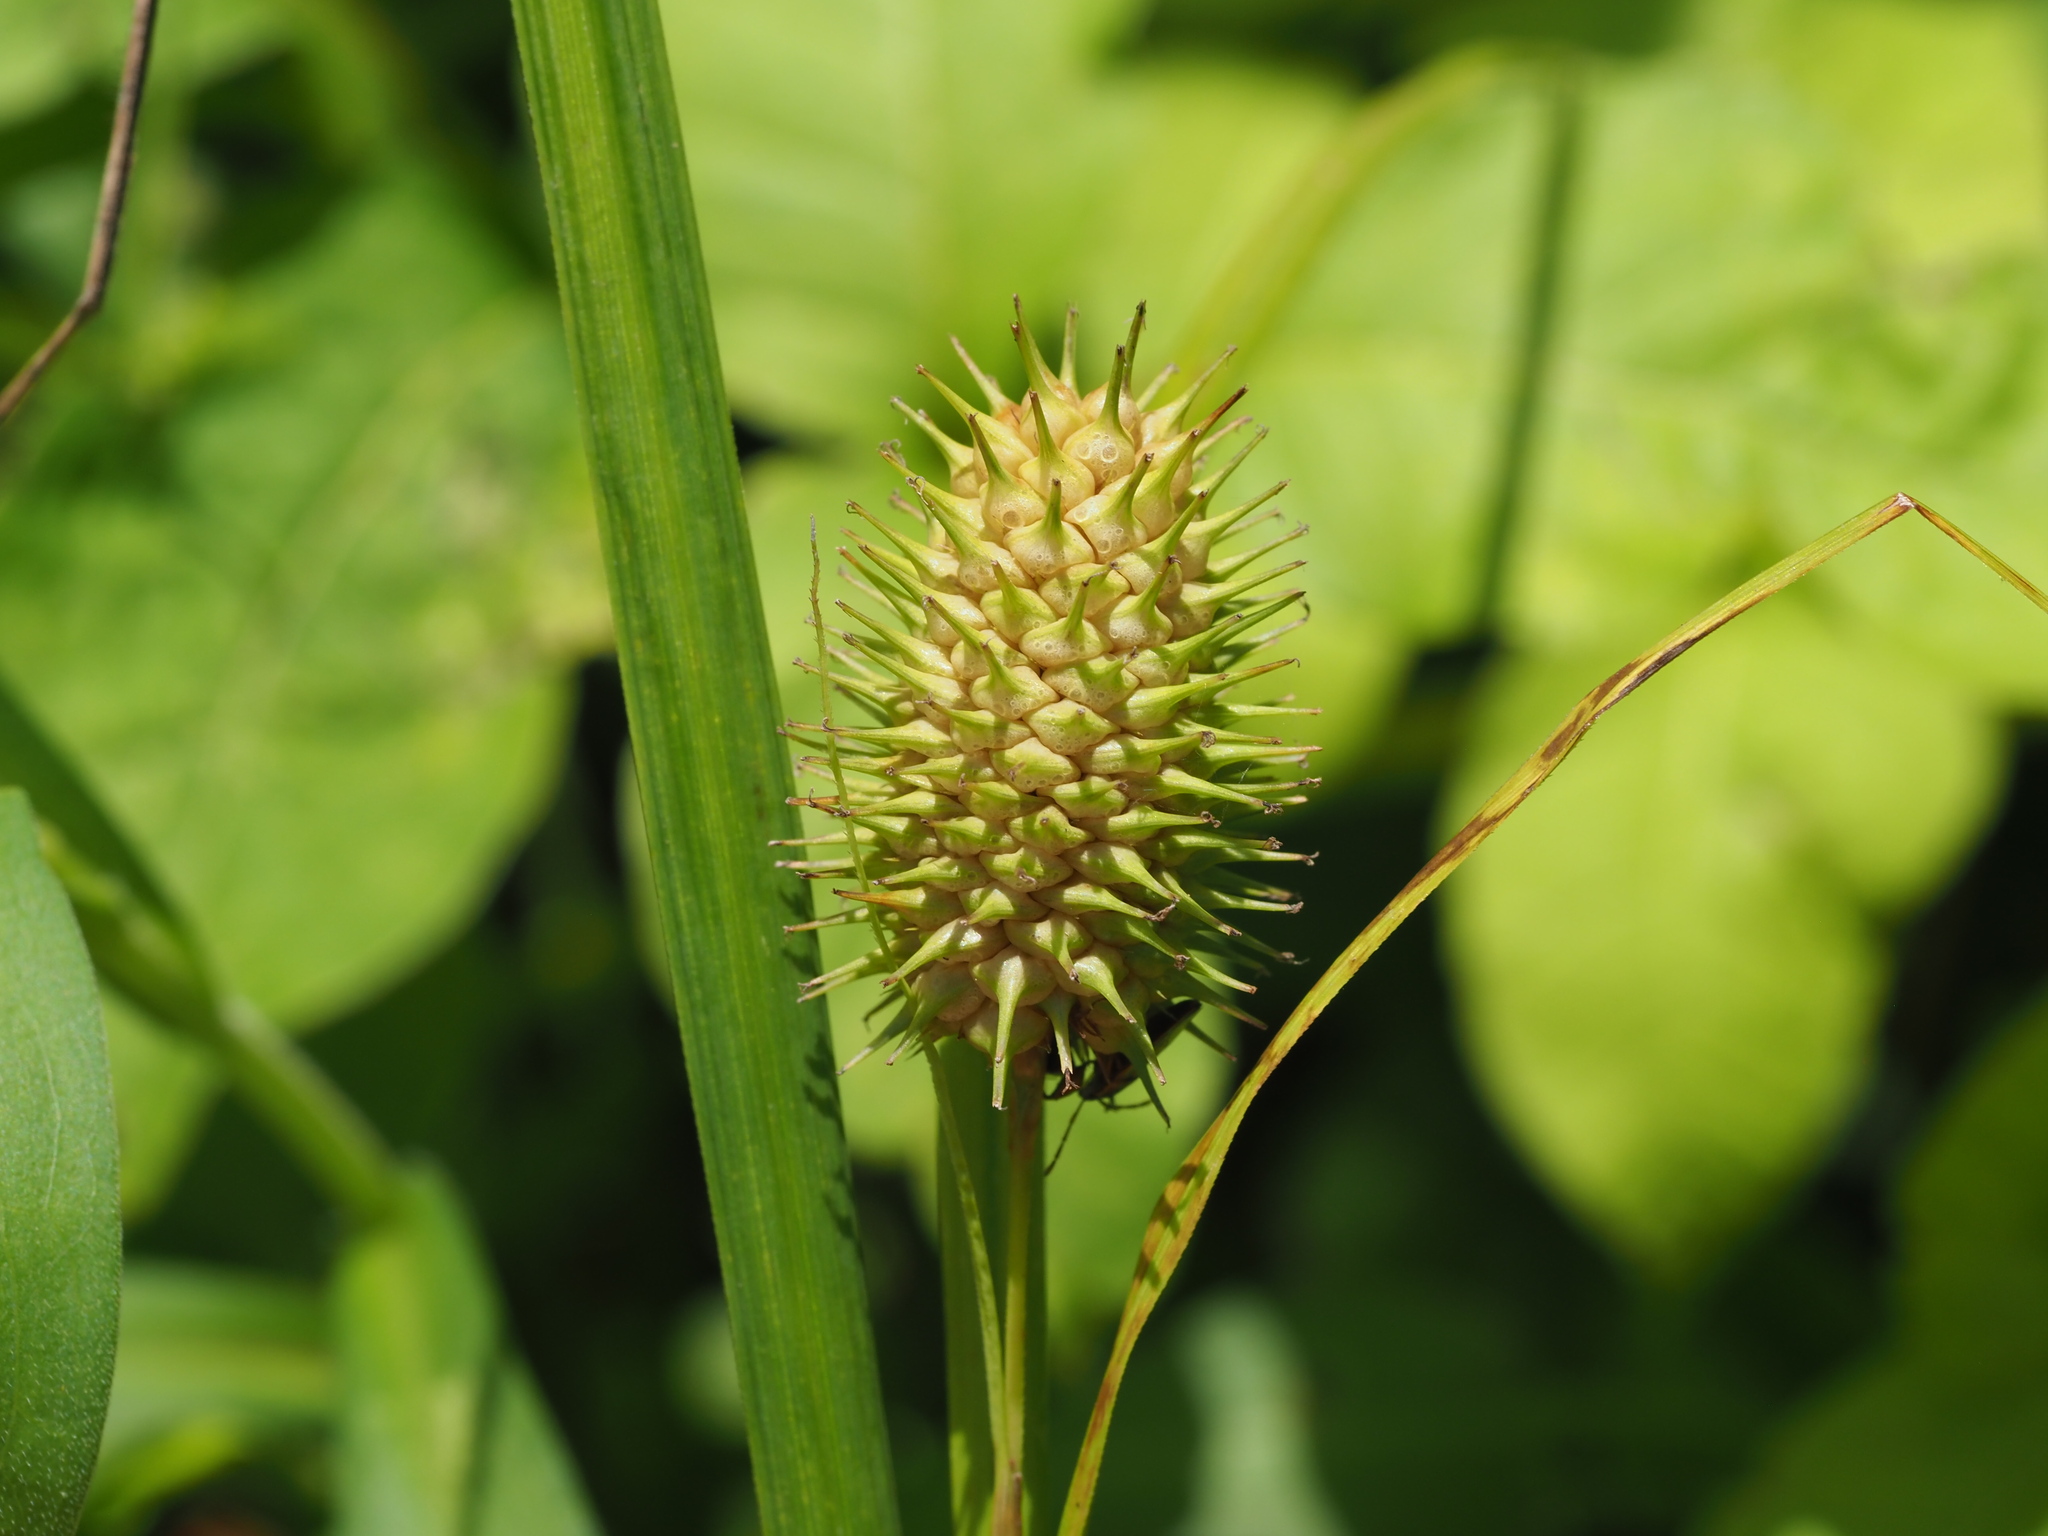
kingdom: Plantae
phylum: Tracheophyta
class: Liliopsida
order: Poales
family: Cyperaceae
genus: Carex
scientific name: Carex squarrosa
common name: Narrow-leaved cattail sedge
